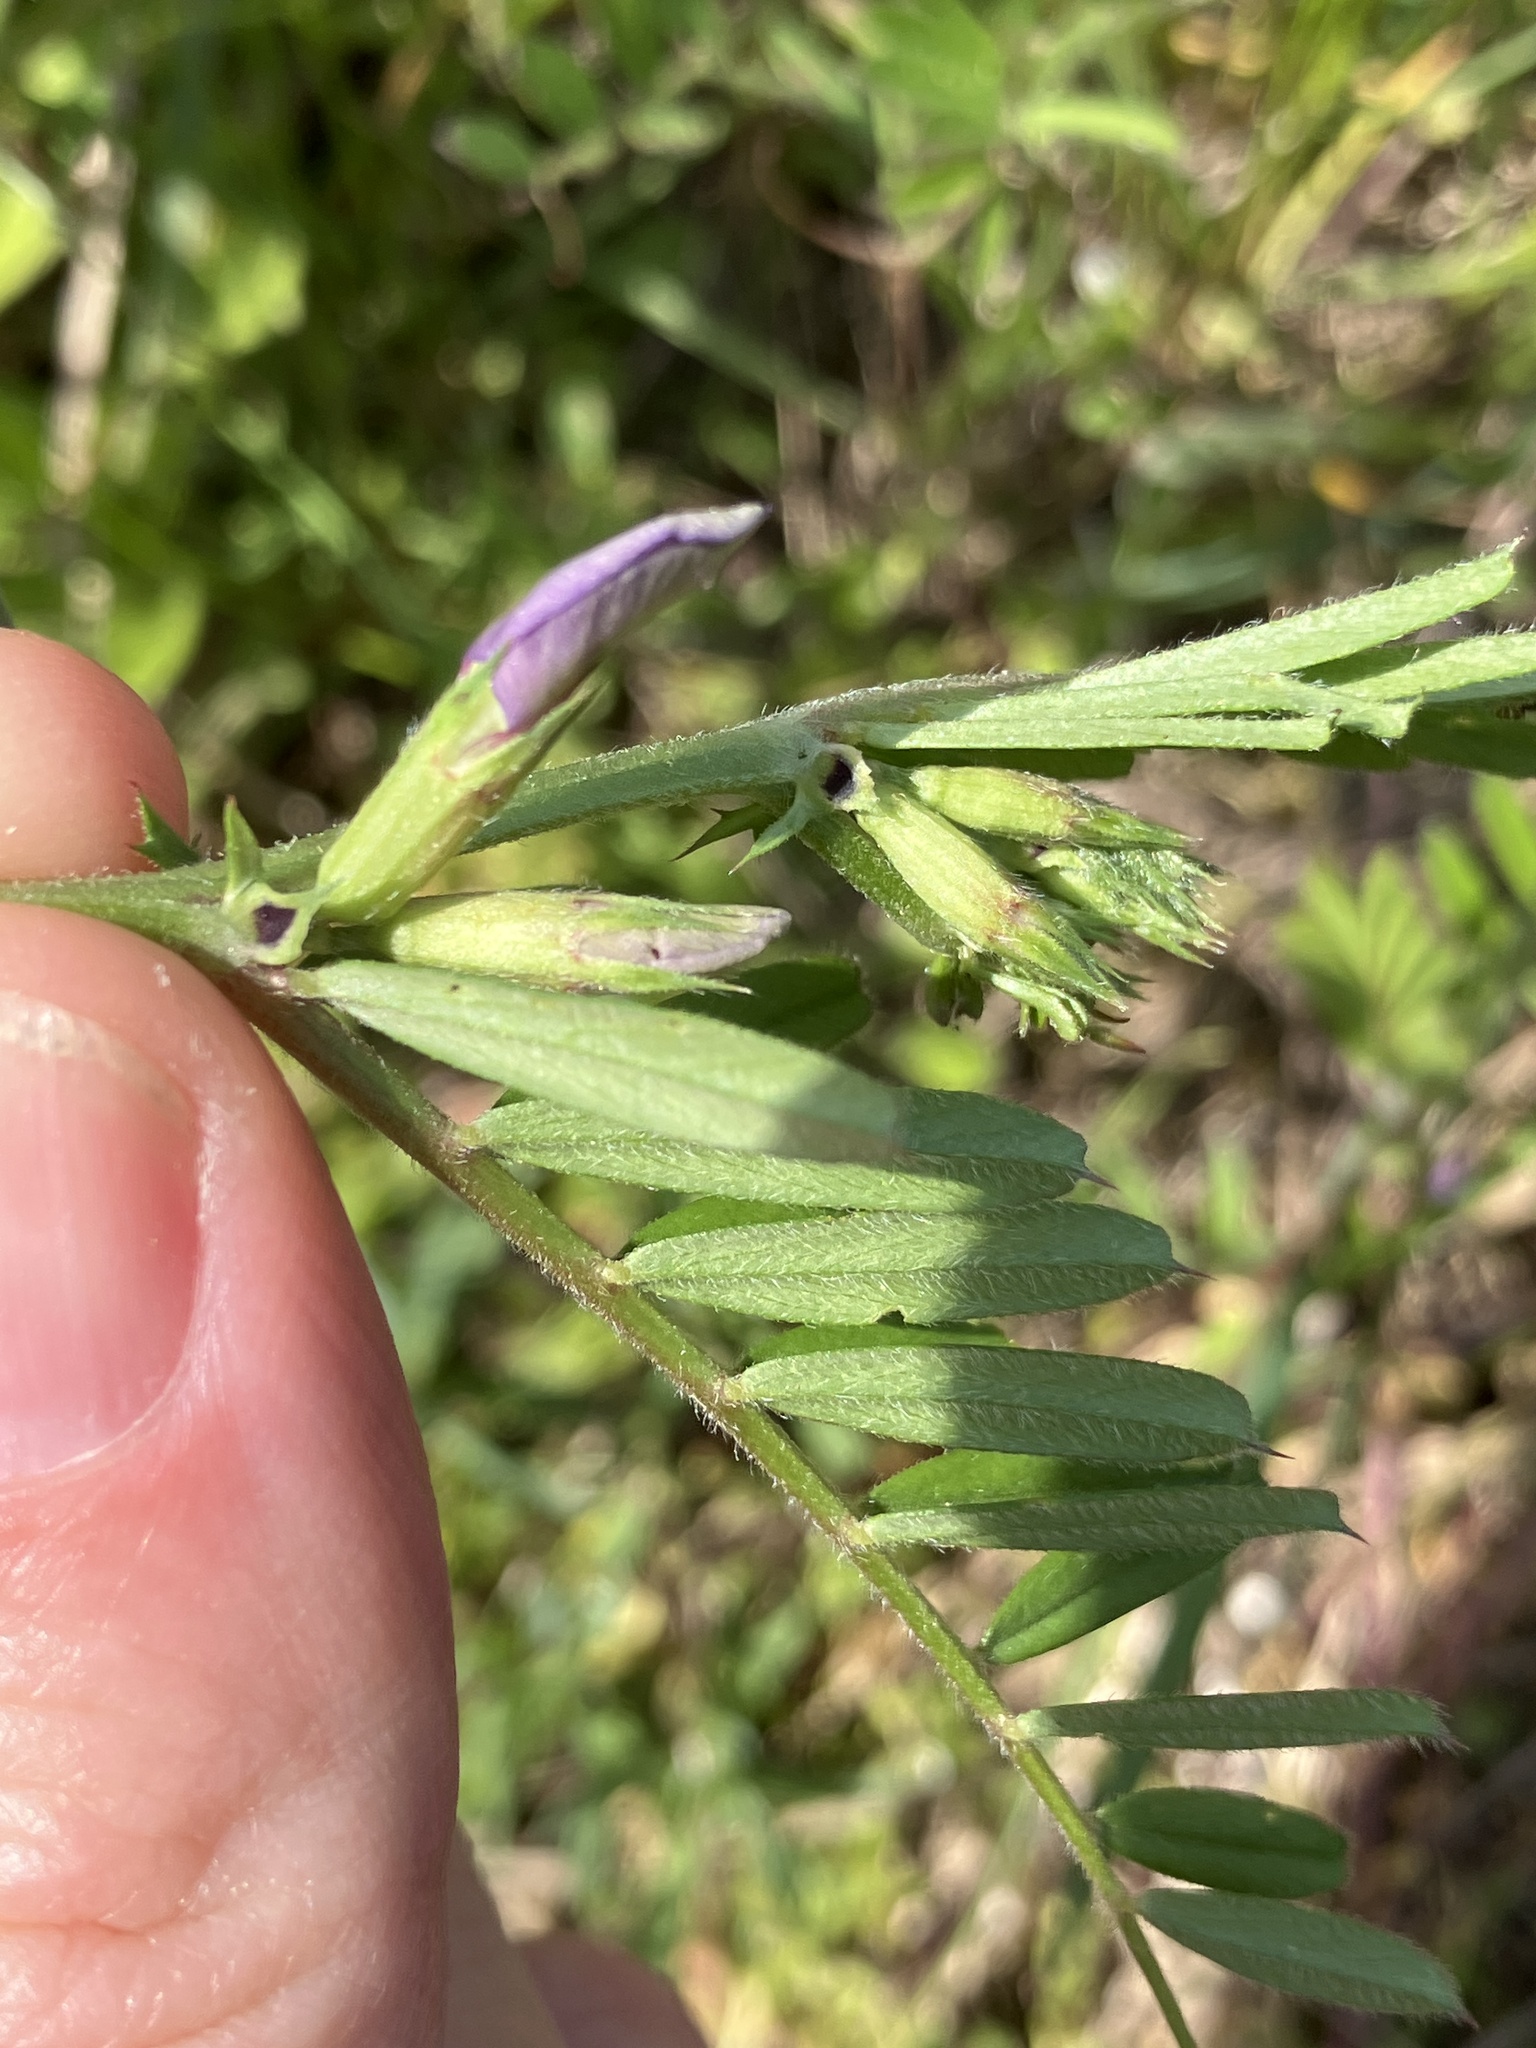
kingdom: Plantae
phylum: Tracheophyta
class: Magnoliopsida
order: Fabales
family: Fabaceae
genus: Vicia
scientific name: Vicia sativa
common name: Garden vetch
